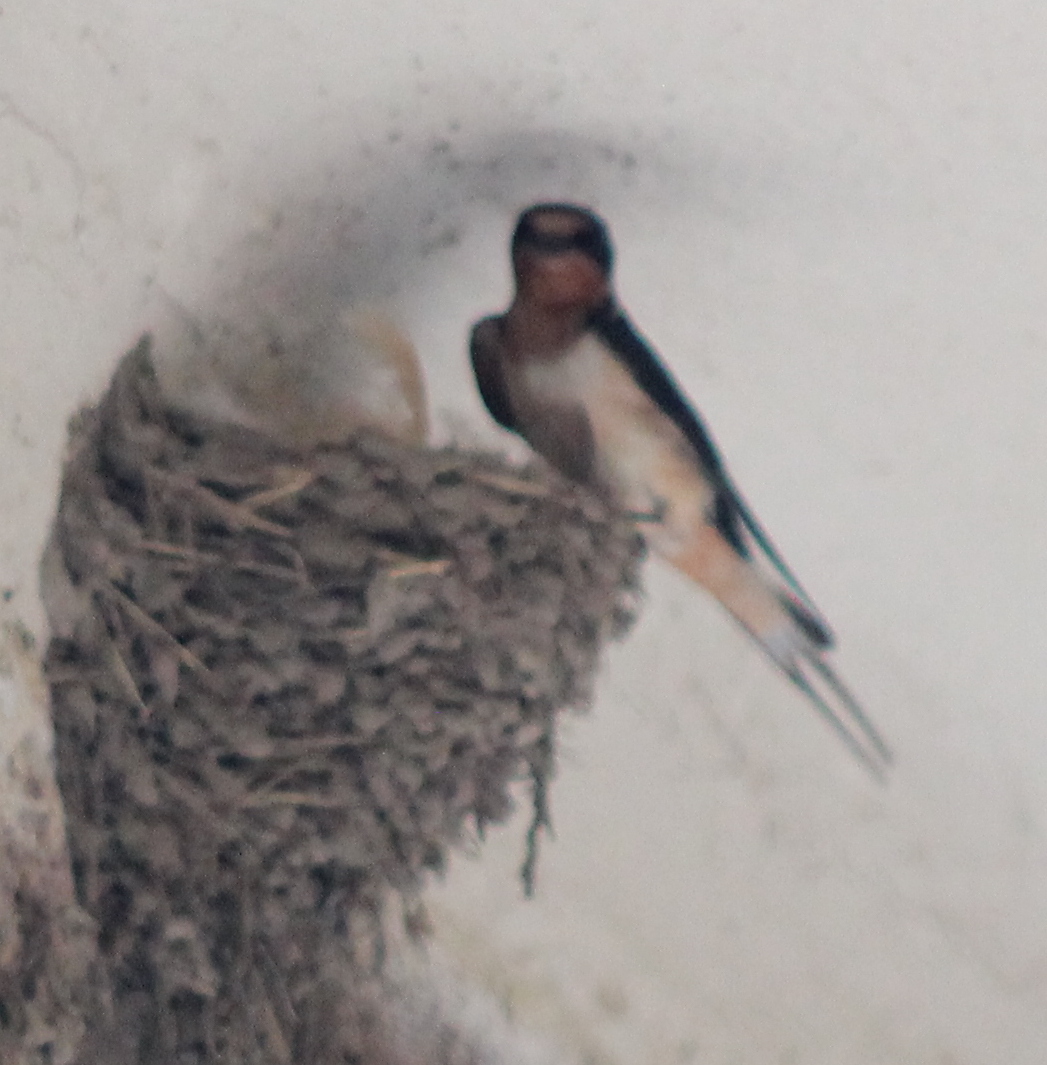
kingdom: Animalia
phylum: Chordata
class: Aves
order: Passeriformes
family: Hirundinidae
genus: Hirundo
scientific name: Hirundo rustica
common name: Barn swallow
